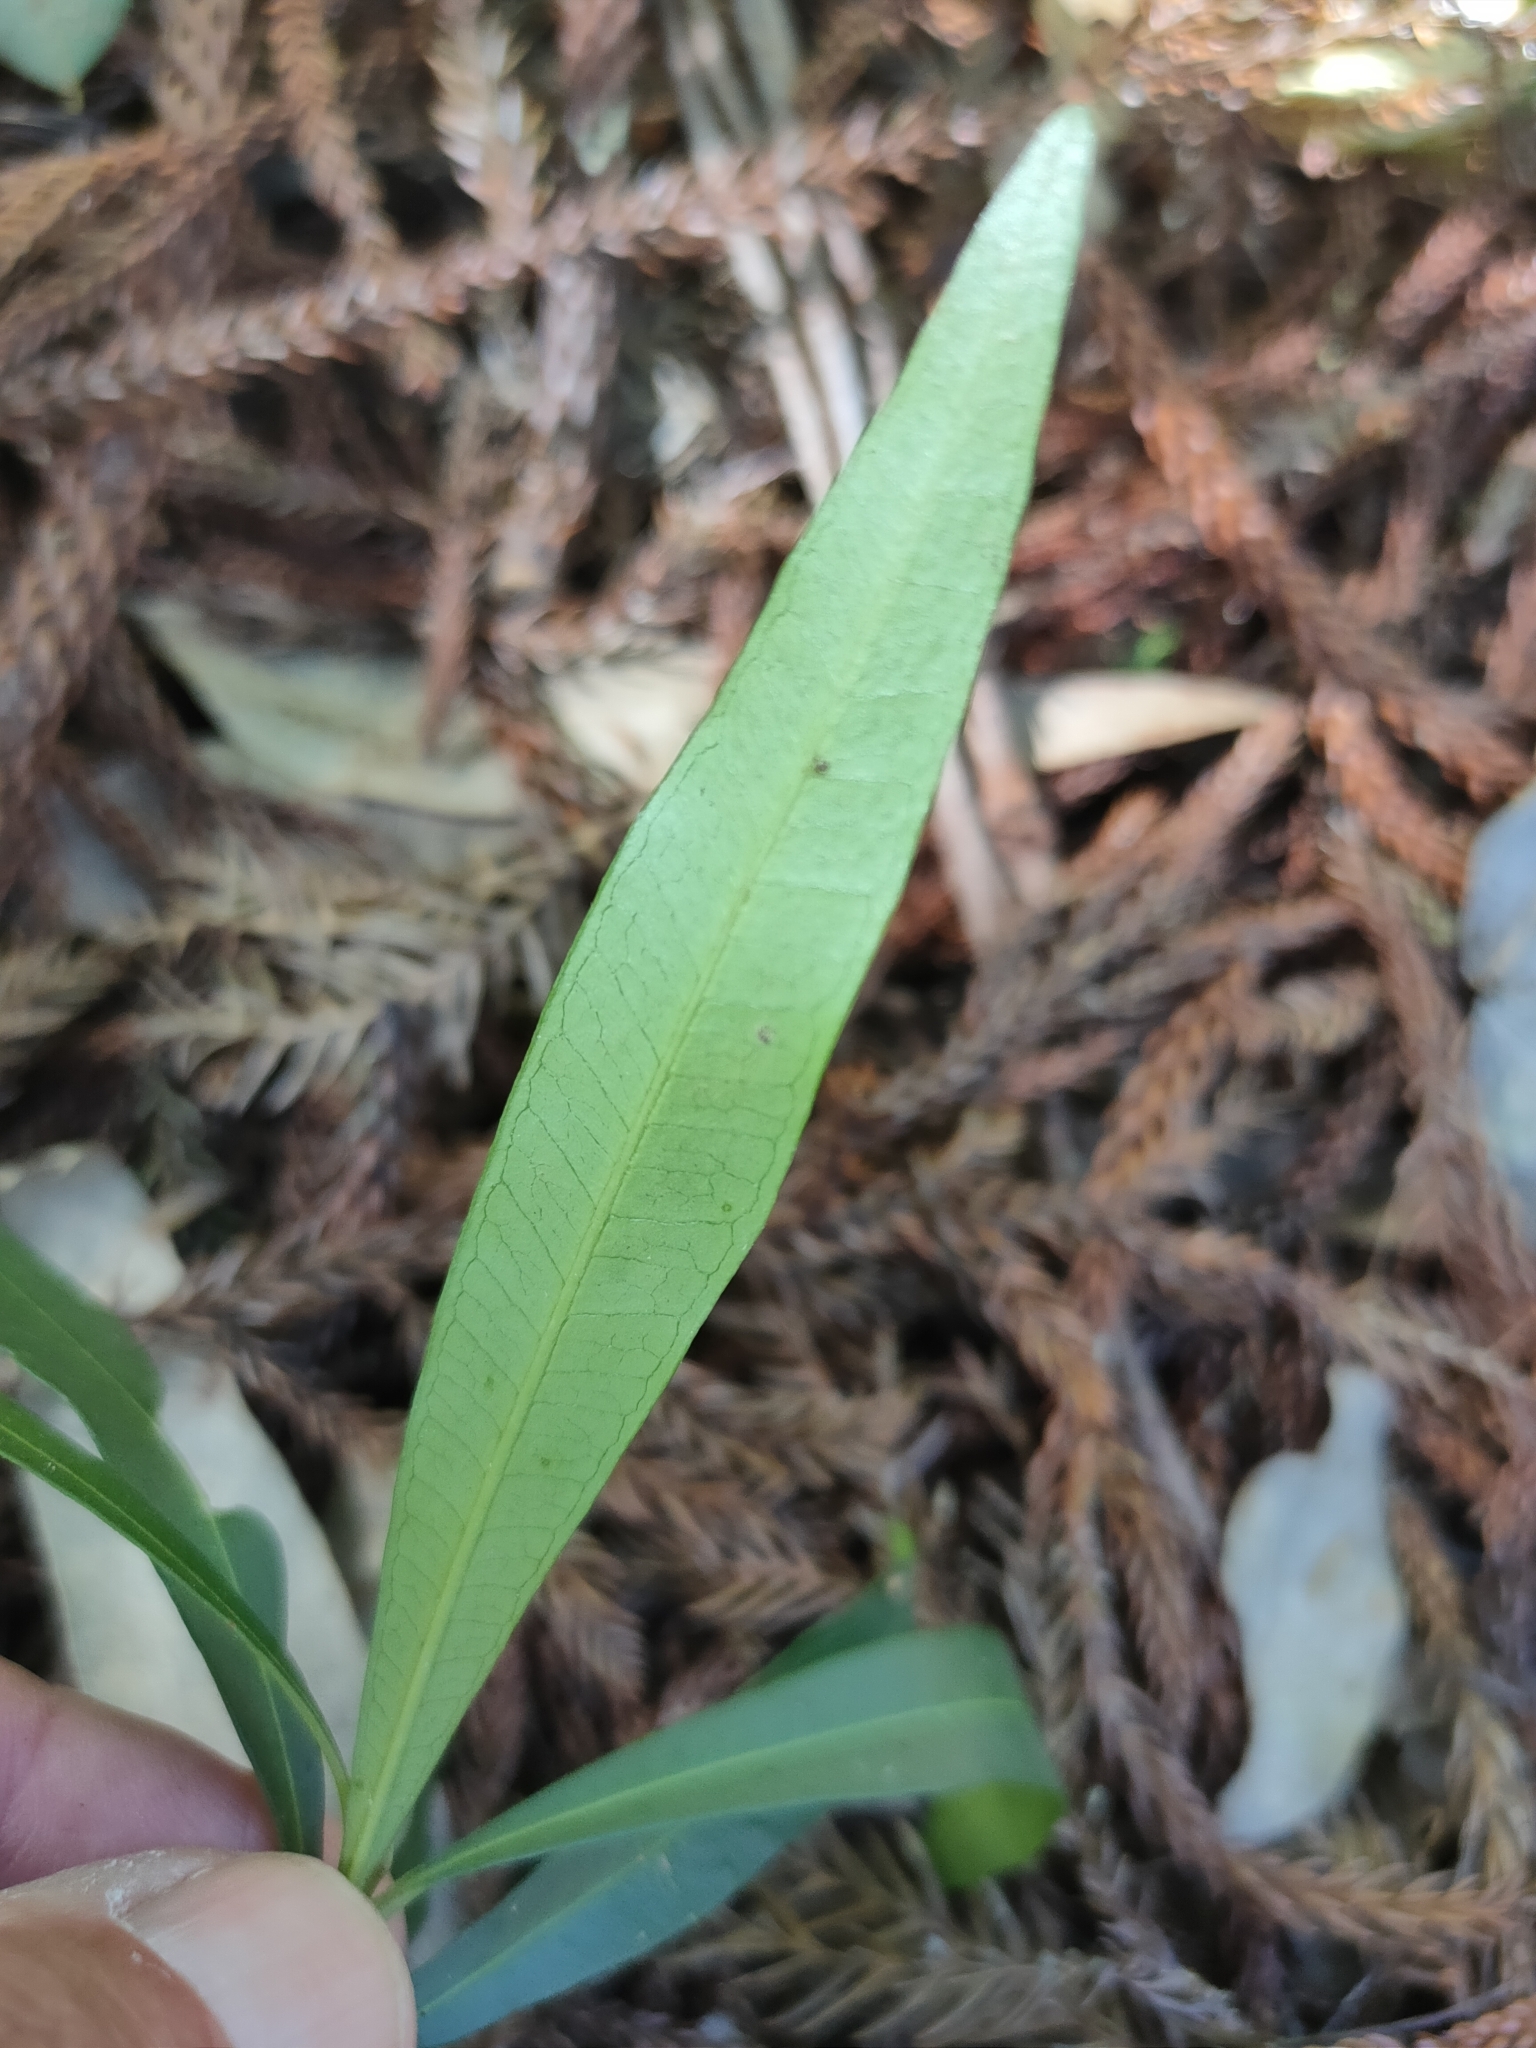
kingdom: Plantae
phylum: Tracheophyta
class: Magnoliopsida
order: Sapindales
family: Simaroubaceae
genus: Samadera
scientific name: Samadera bidwillii
